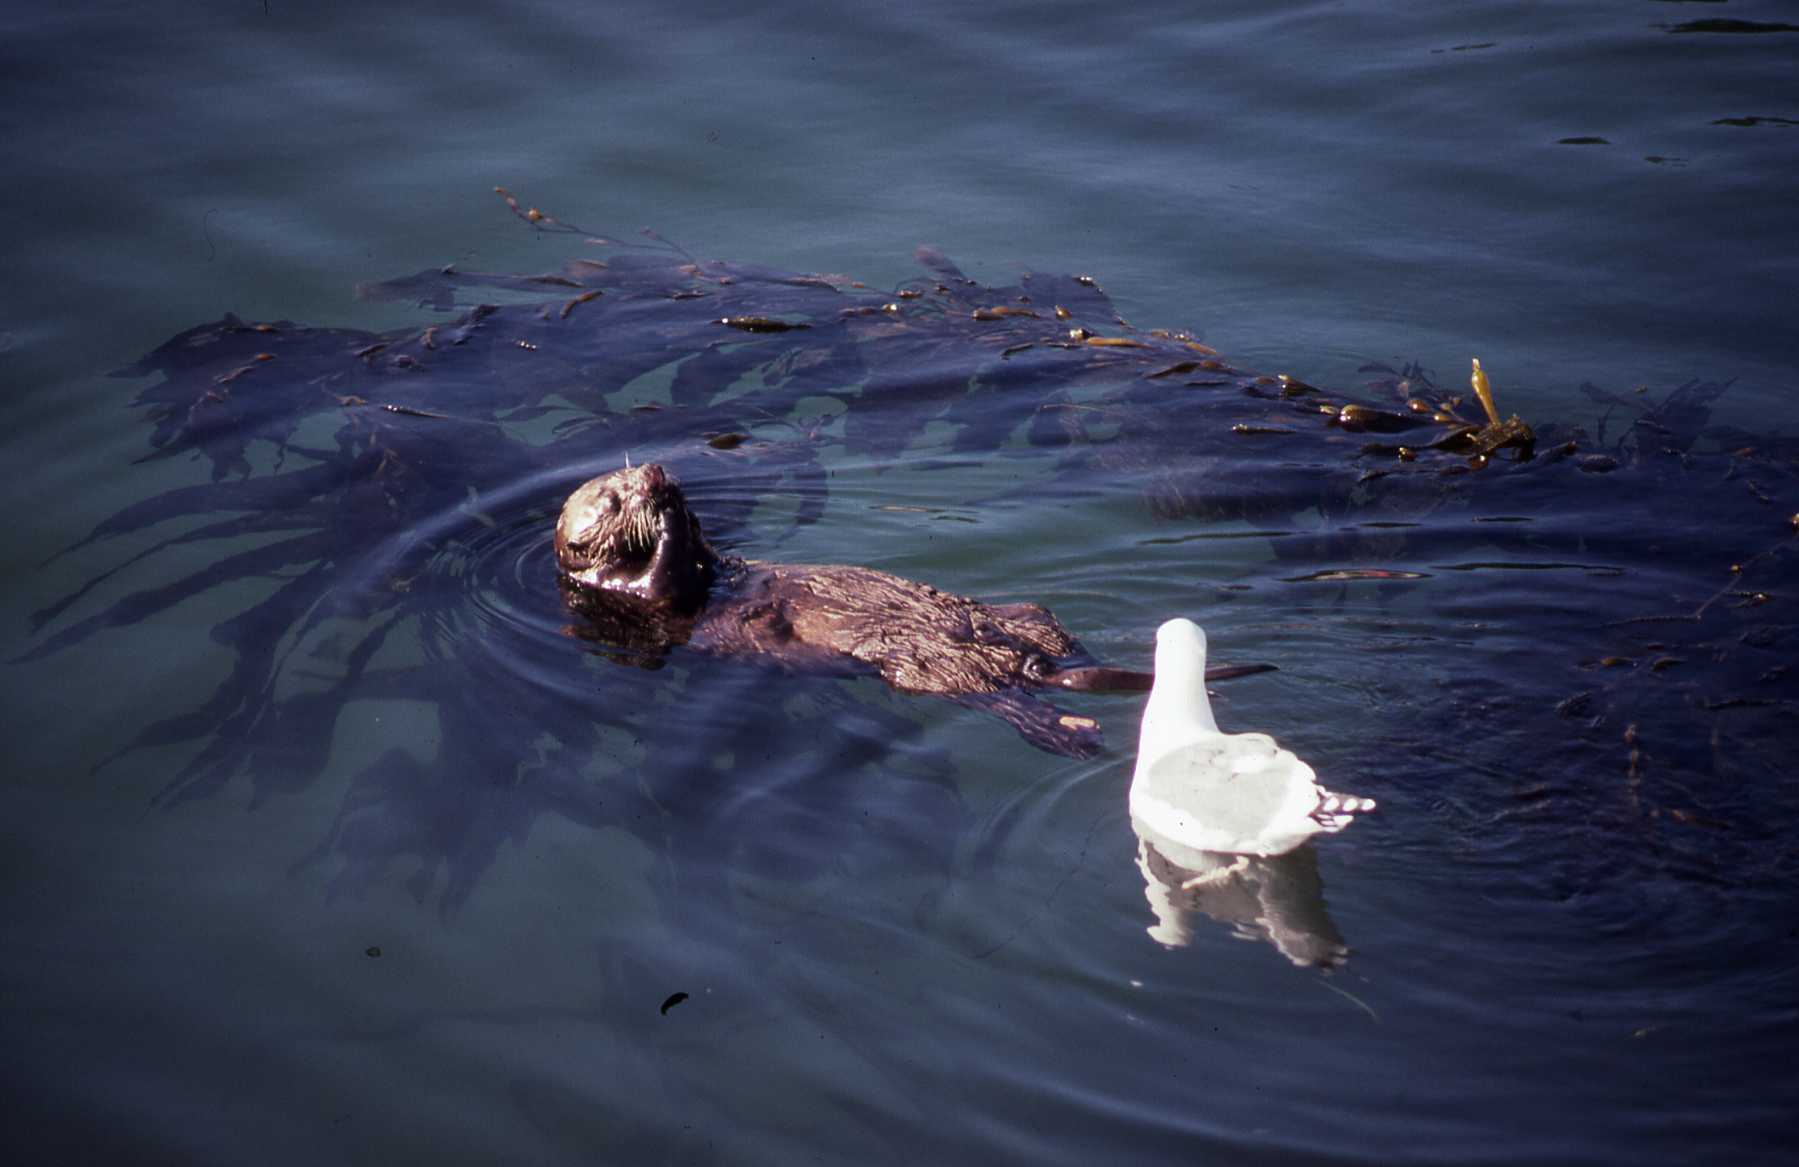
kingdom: Animalia
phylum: Chordata
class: Mammalia
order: Carnivora
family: Mustelidae
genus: Enhydra
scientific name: Enhydra lutris
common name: Sea otter
